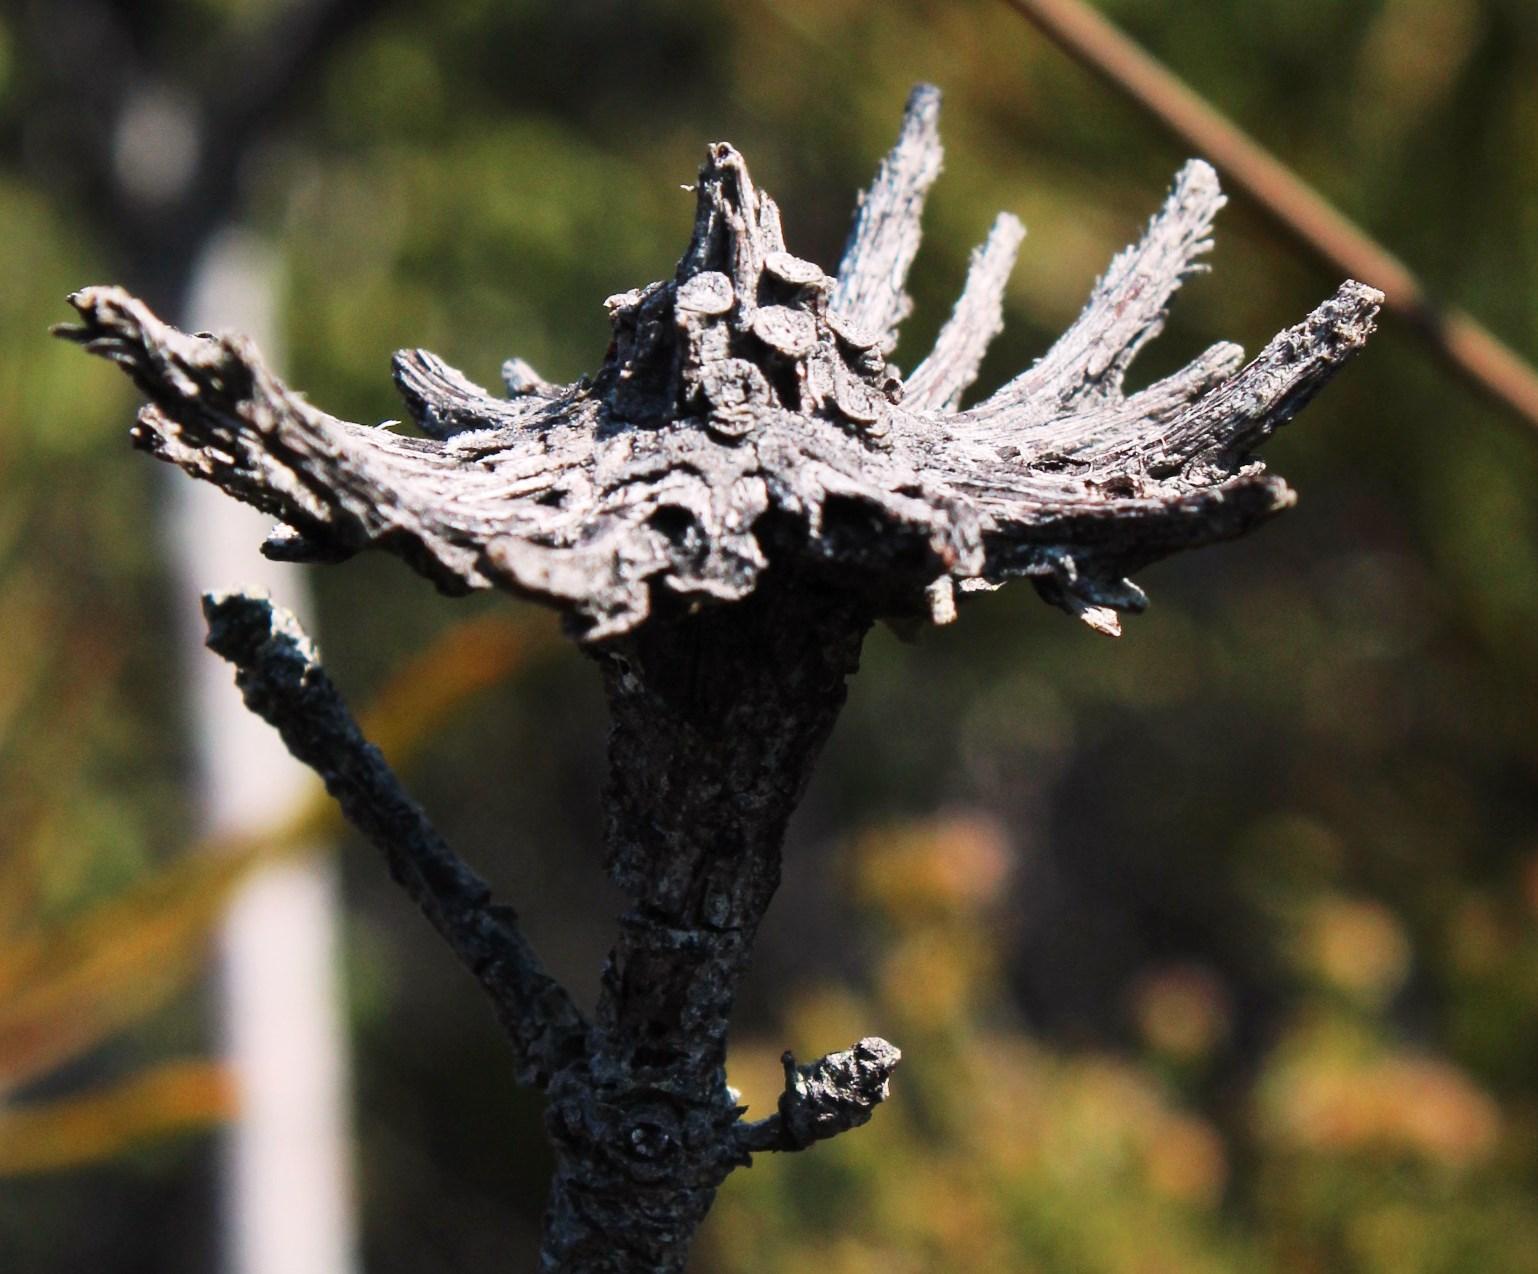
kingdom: Plantae
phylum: Tracheophyta
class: Magnoliopsida
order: Proteales
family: Proteaceae
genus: Aulax
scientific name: Aulax cancellata
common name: Channel-leaf featherbush
